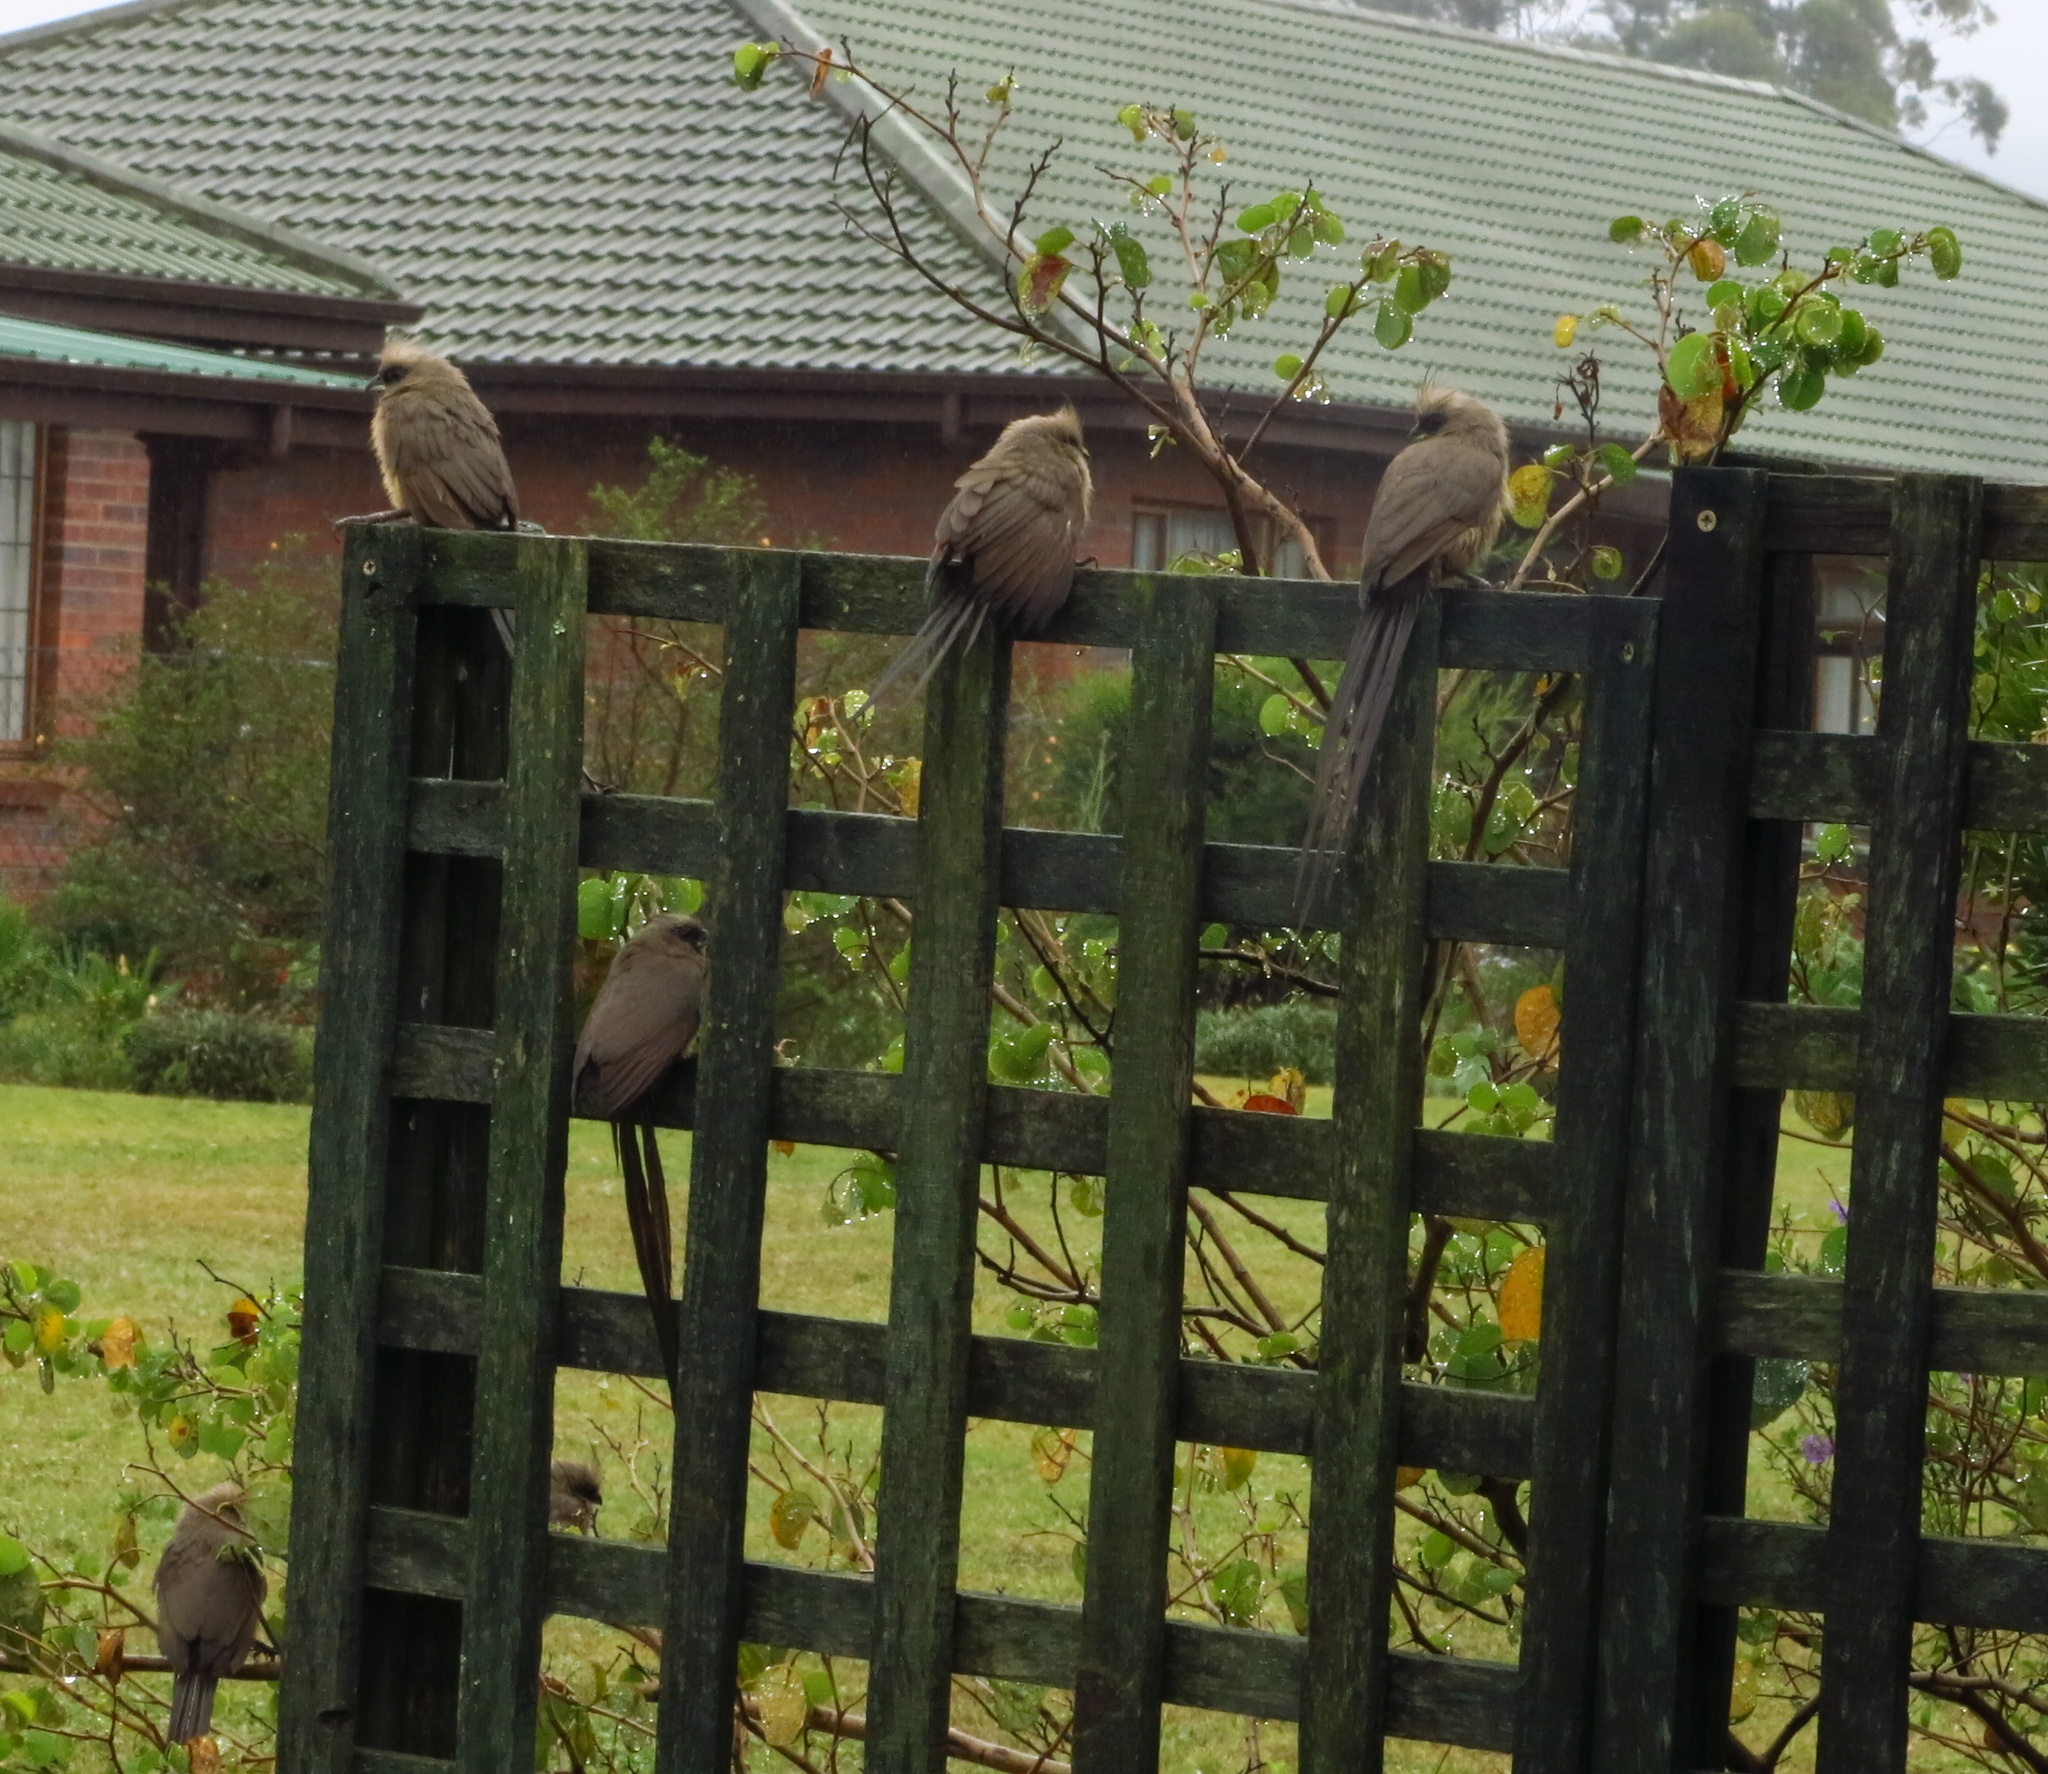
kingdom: Animalia
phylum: Chordata
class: Aves
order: Coliiformes
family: Coliidae
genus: Colius
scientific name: Colius striatus
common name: Speckled mousebird
